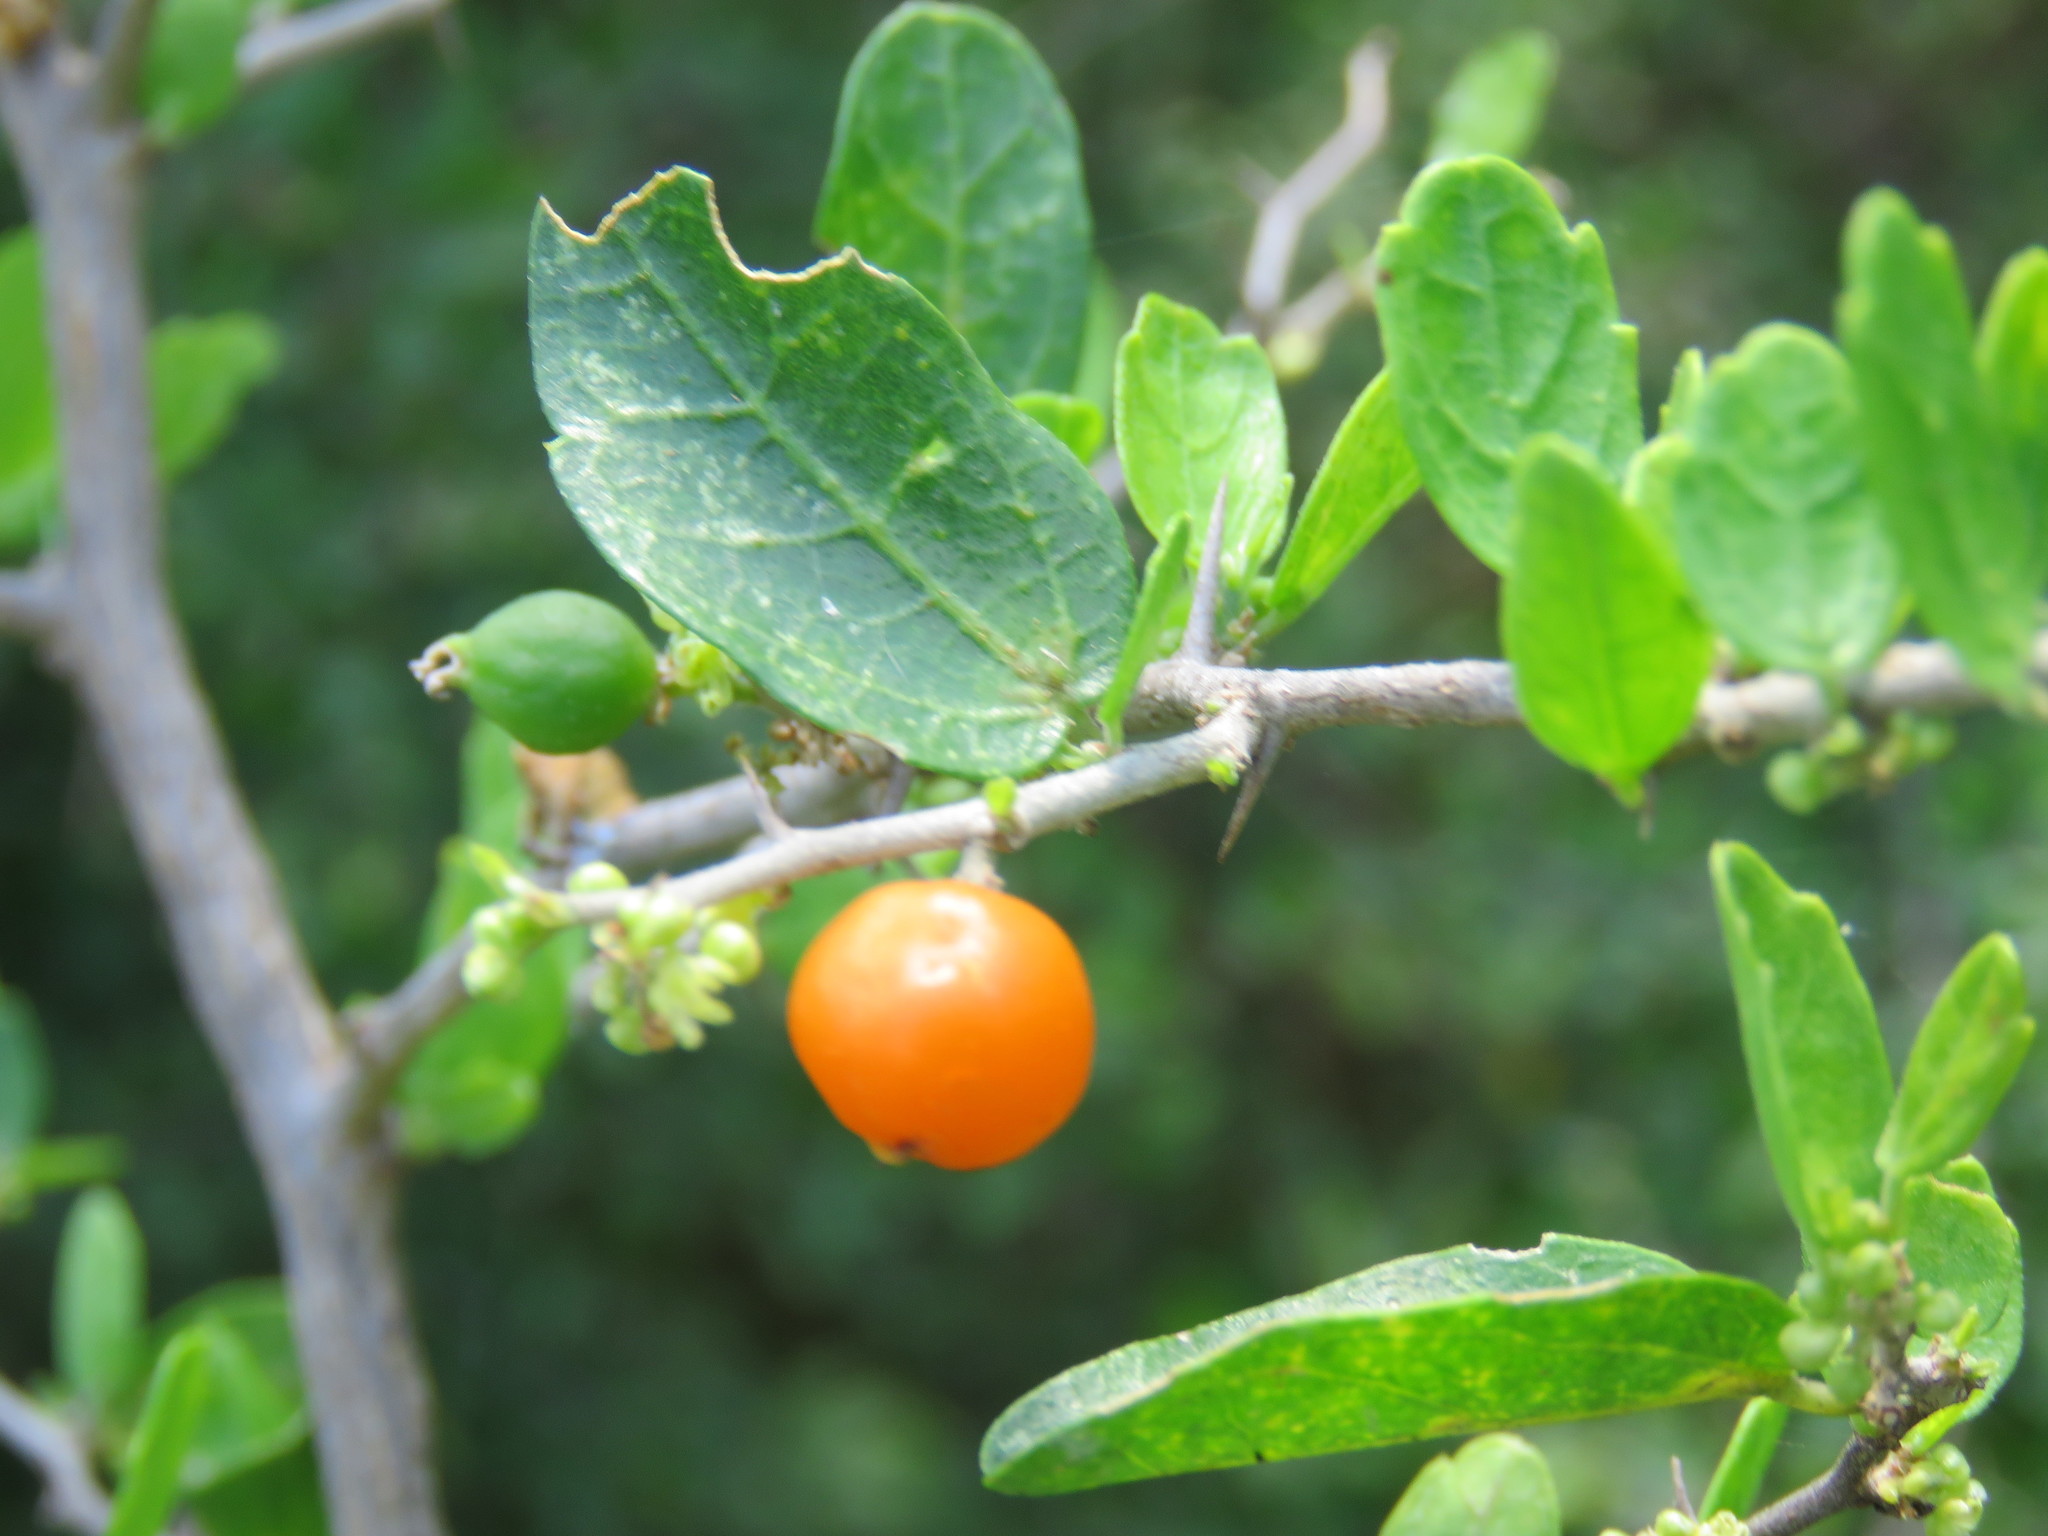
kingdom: Plantae
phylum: Tracheophyta
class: Magnoliopsida
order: Rosales
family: Cannabaceae
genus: Celtis
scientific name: Celtis pallida
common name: Desert hackberry
